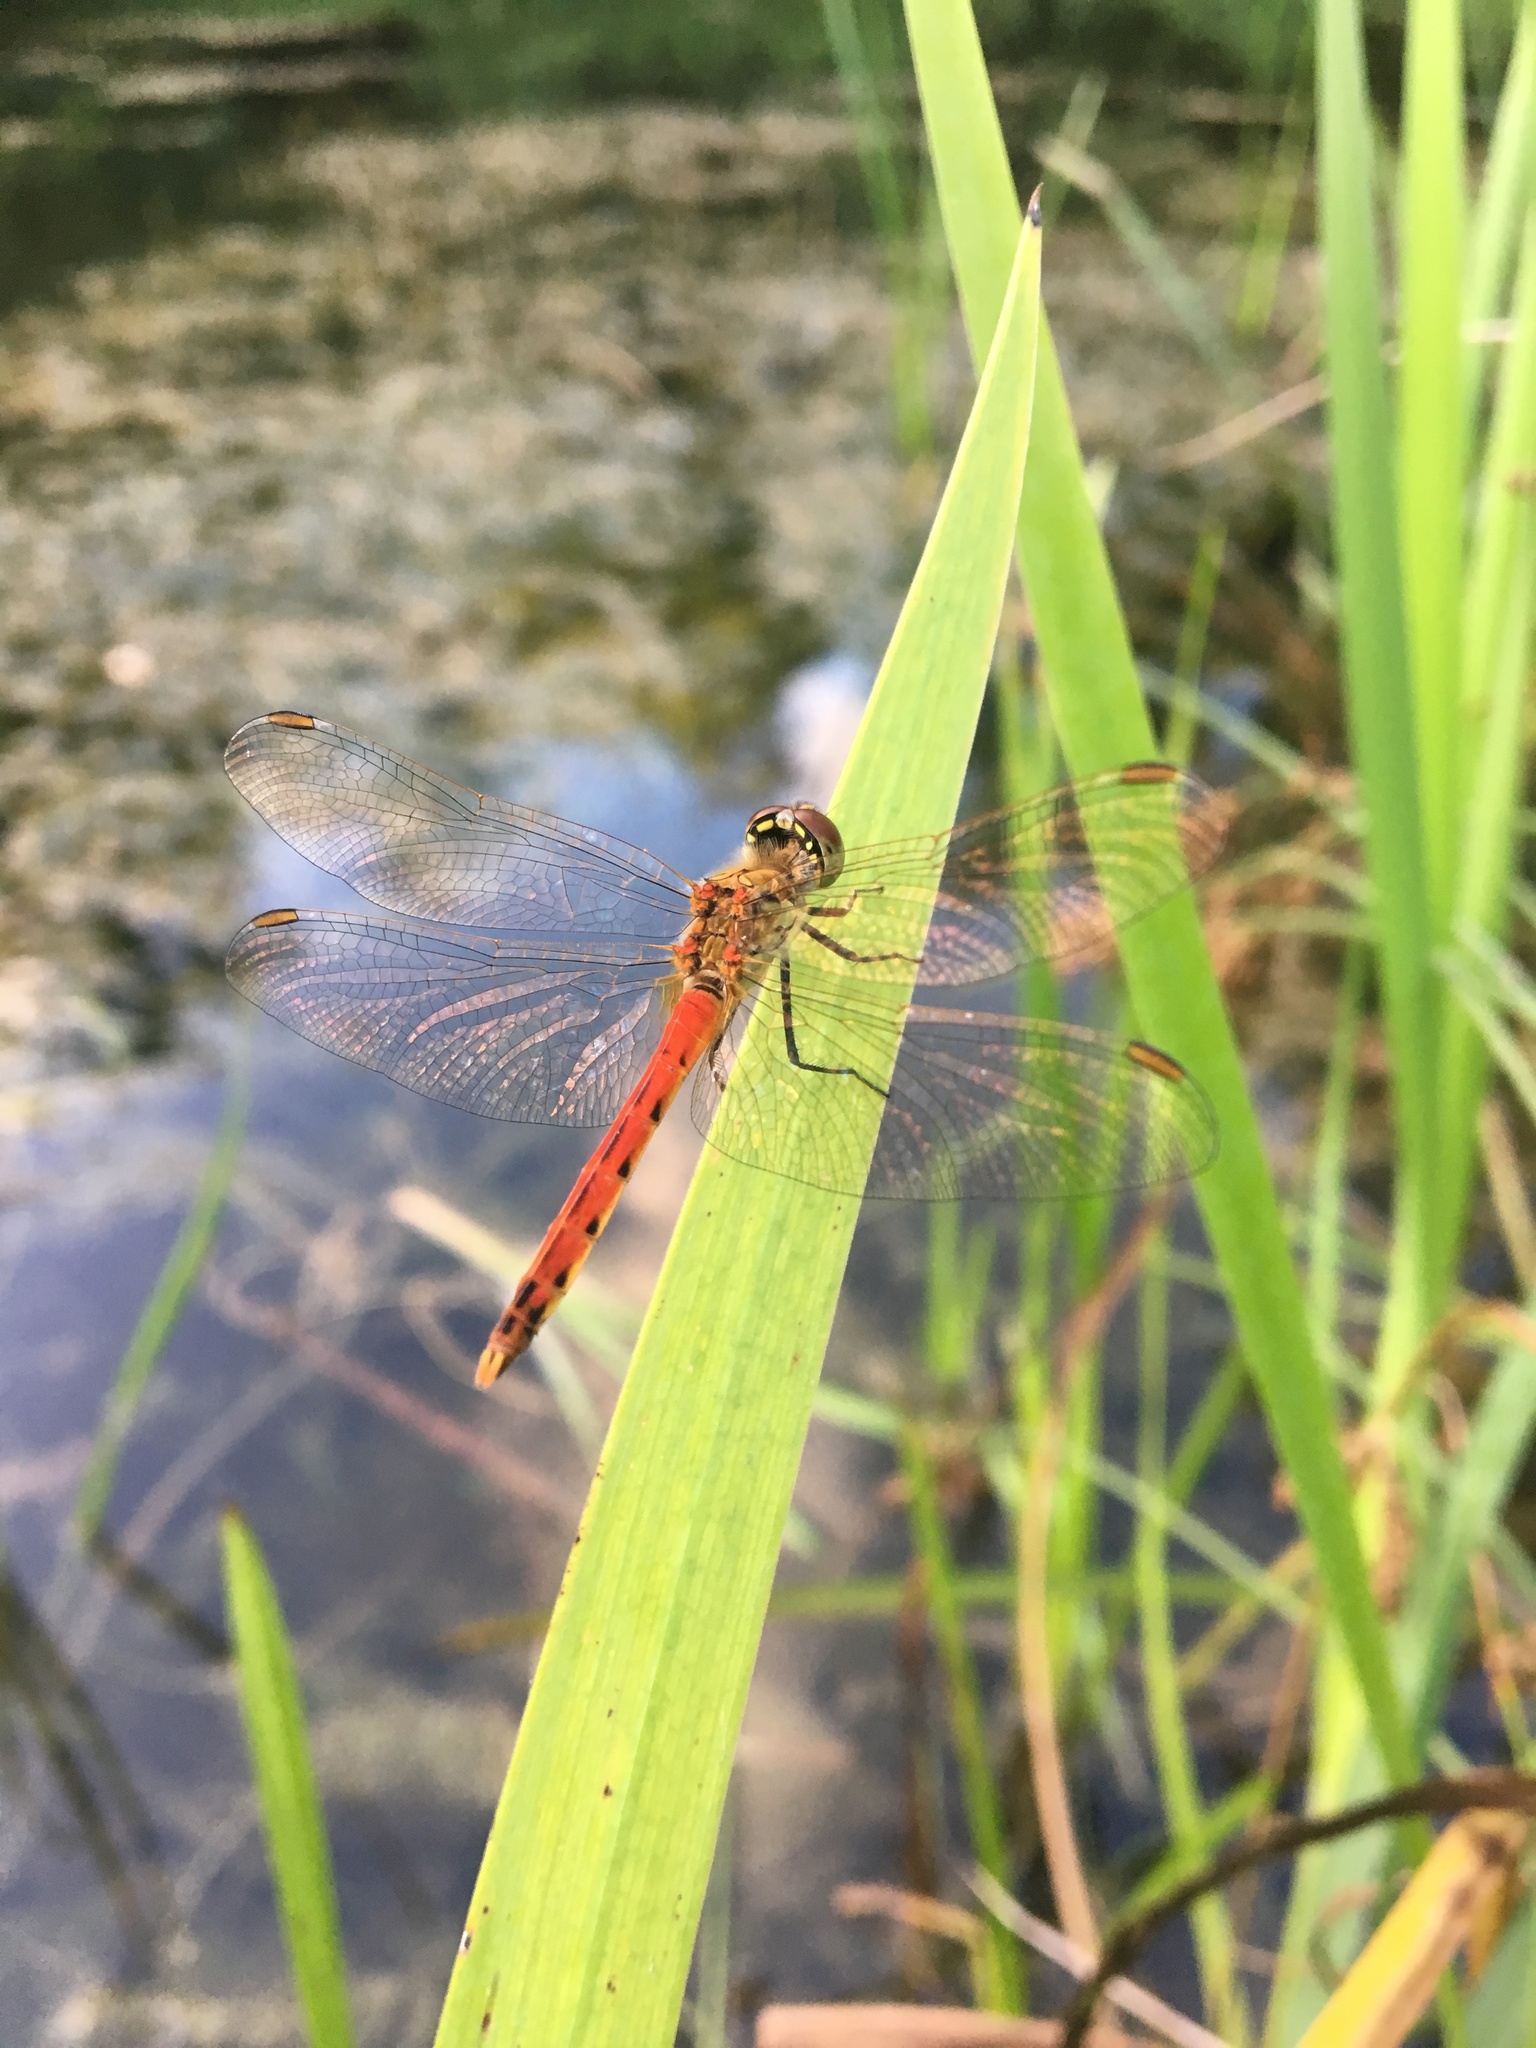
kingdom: Animalia
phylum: Arthropoda
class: Insecta
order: Odonata
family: Libellulidae
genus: Sympetrum
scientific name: Sympetrum depressiusculum
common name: Spotted darter
